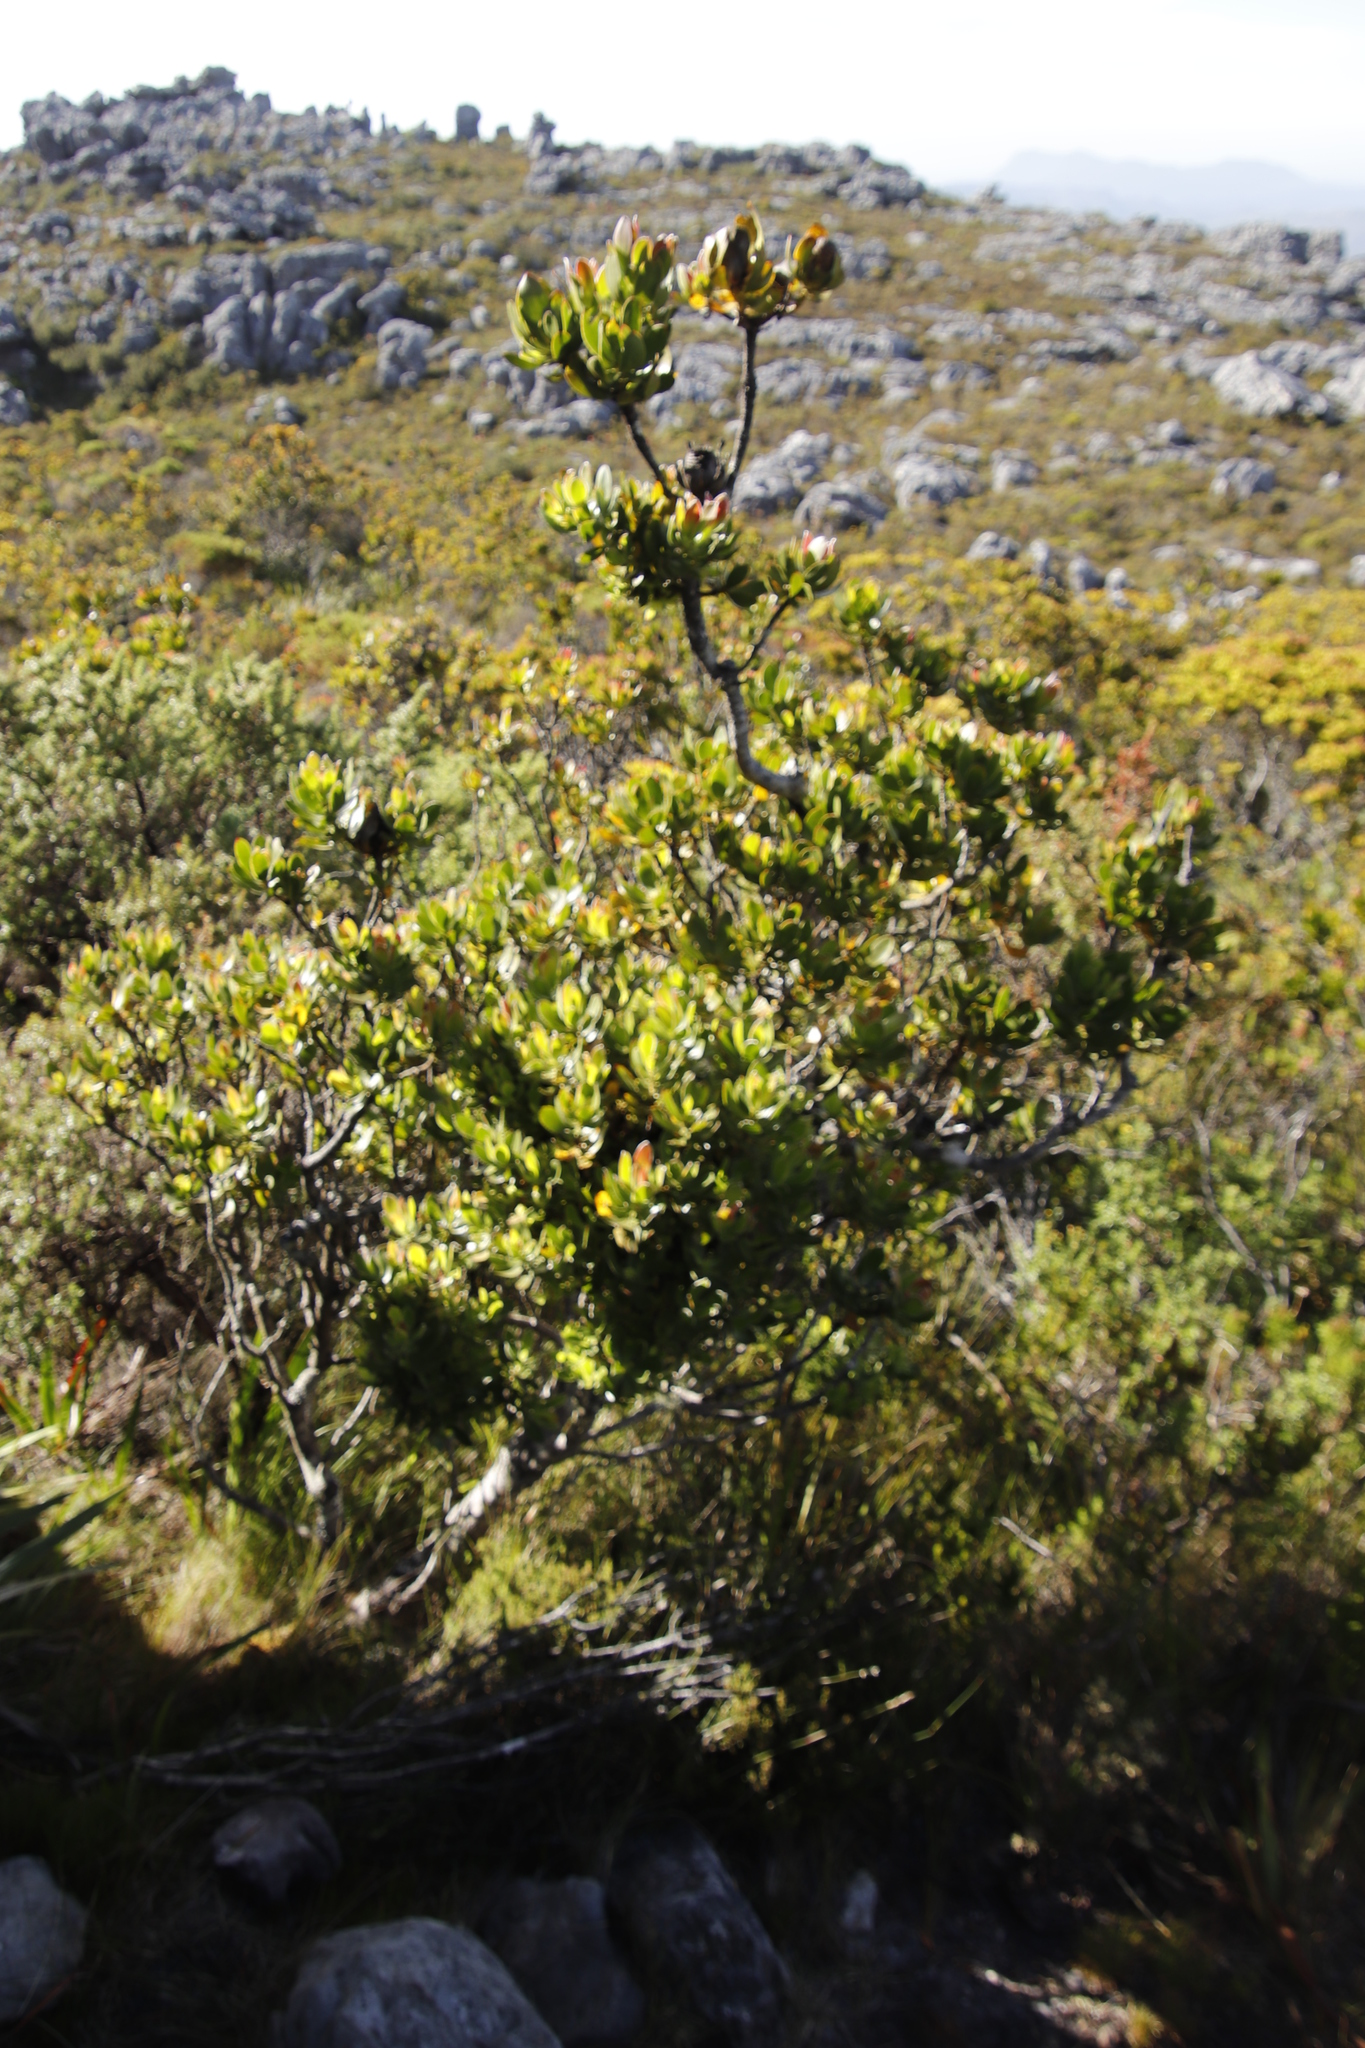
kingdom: Plantae
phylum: Tracheophyta
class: Magnoliopsida
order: Proteales
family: Proteaceae
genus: Leucadendron
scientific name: Leucadendron strobilinum
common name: Mountain rose
